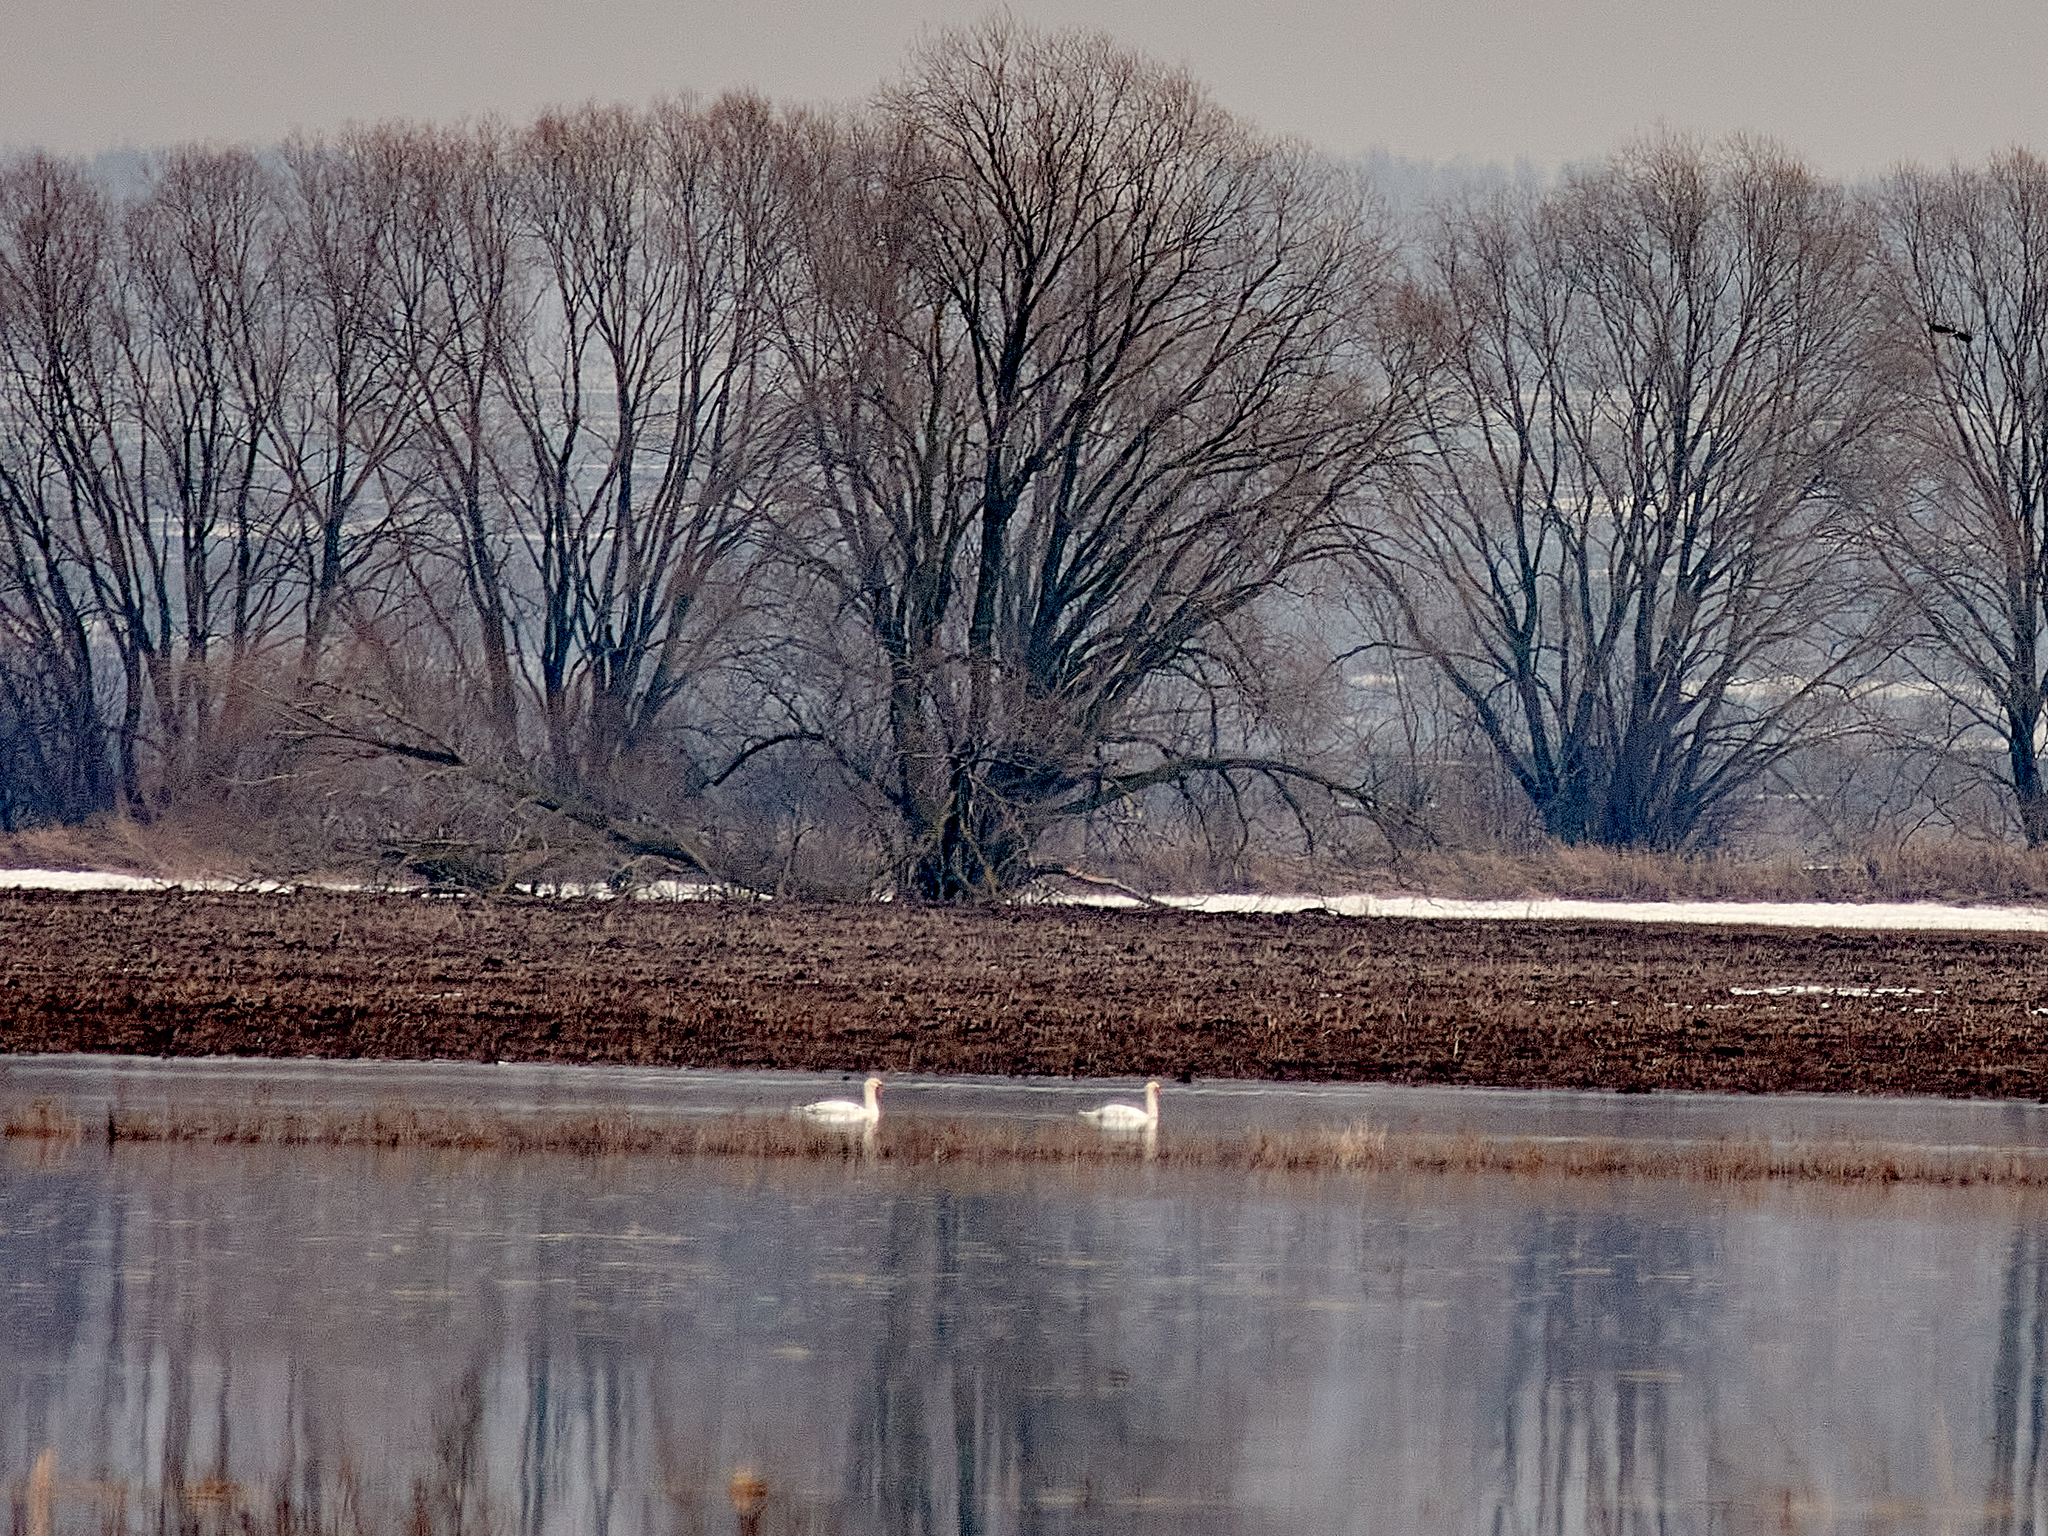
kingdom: Animalia
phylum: Chordata
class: Aves
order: Anseriformes
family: Anatidae
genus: Cygnus
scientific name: Cygnus olor
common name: Mute swan
